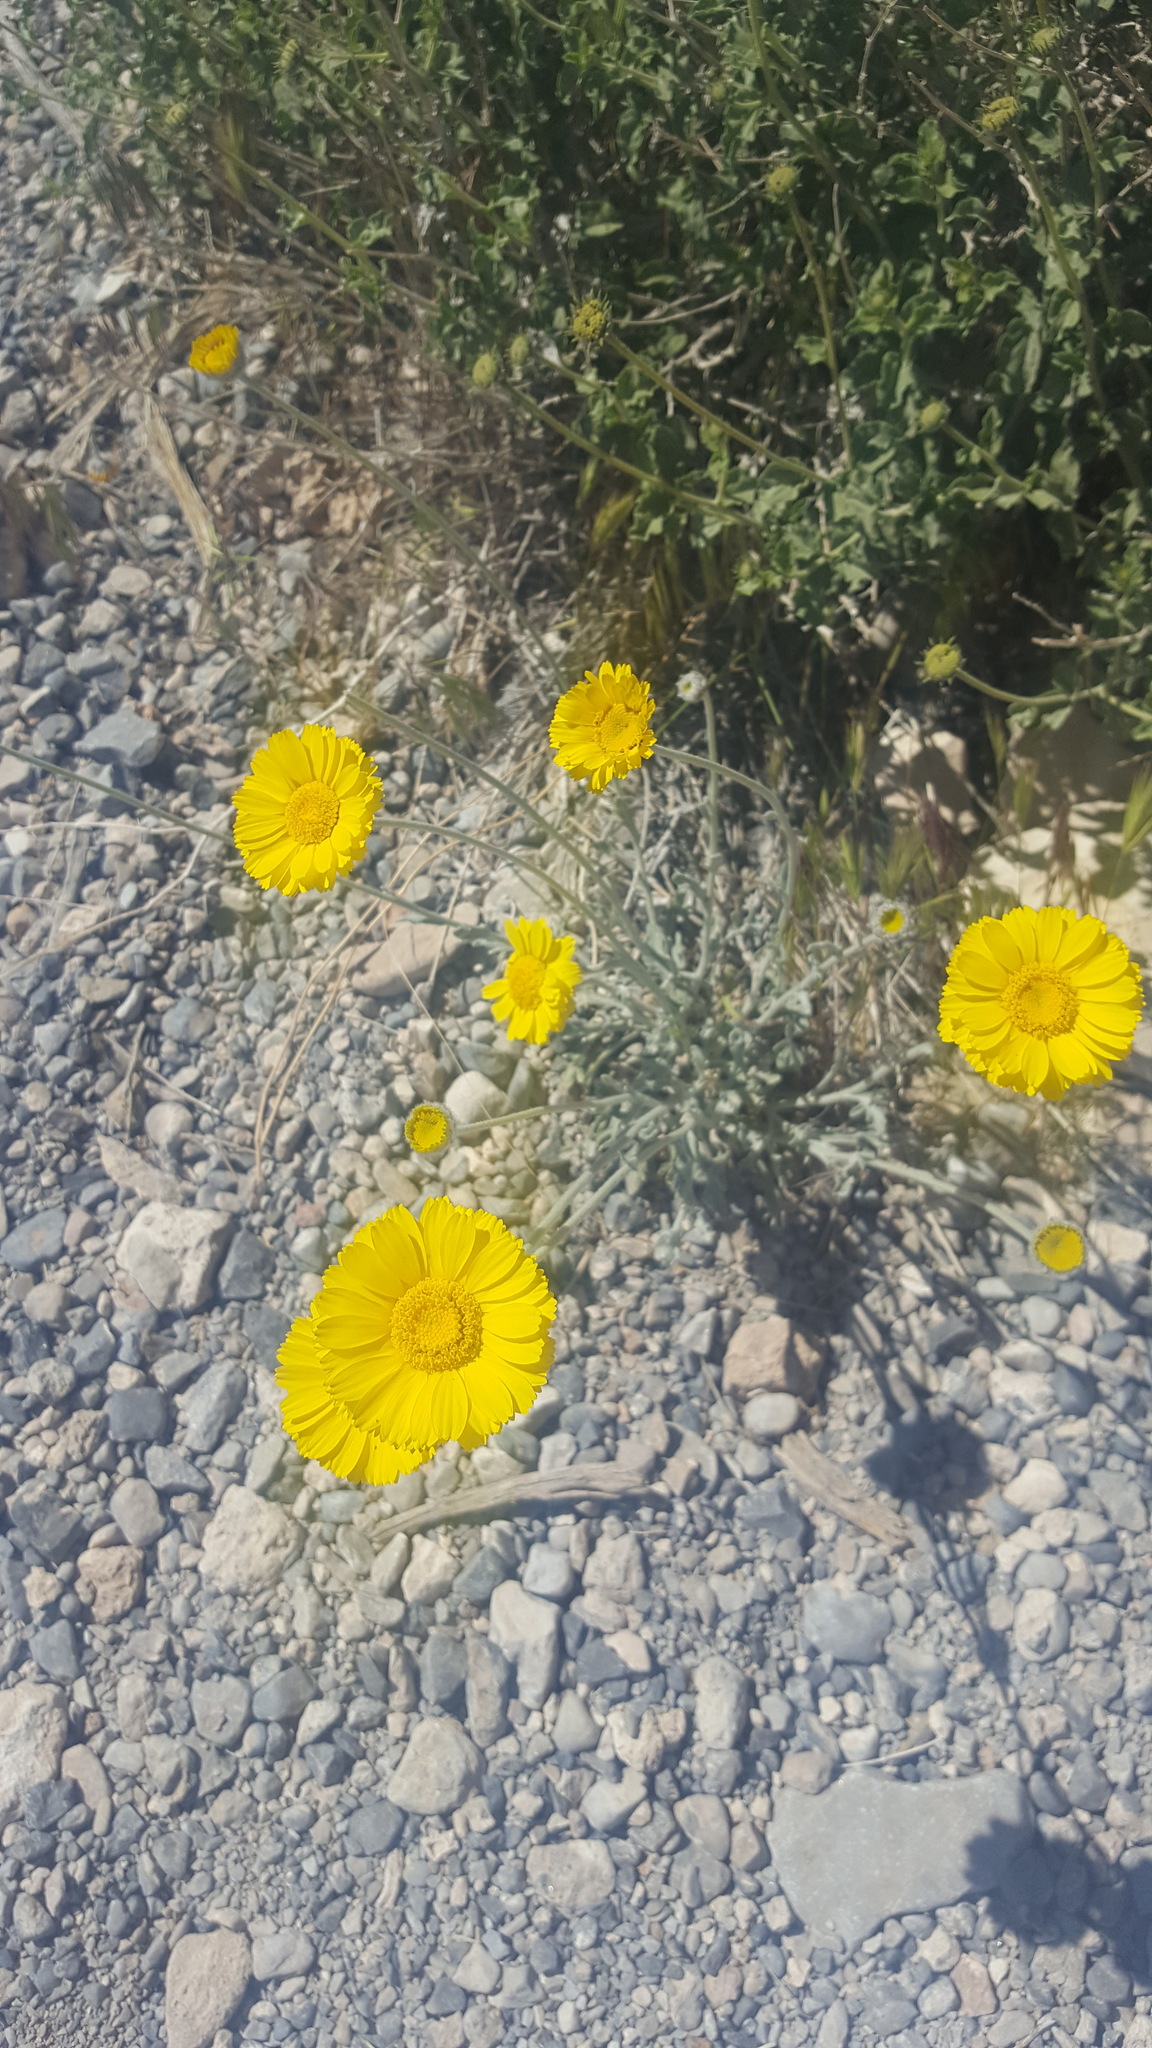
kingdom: Plantae
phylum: Tracheophyta
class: Magnoliopsida
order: Asterales
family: Asteraceae
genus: Baileya
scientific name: Baileya multiradiata
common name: Desert-marigold
